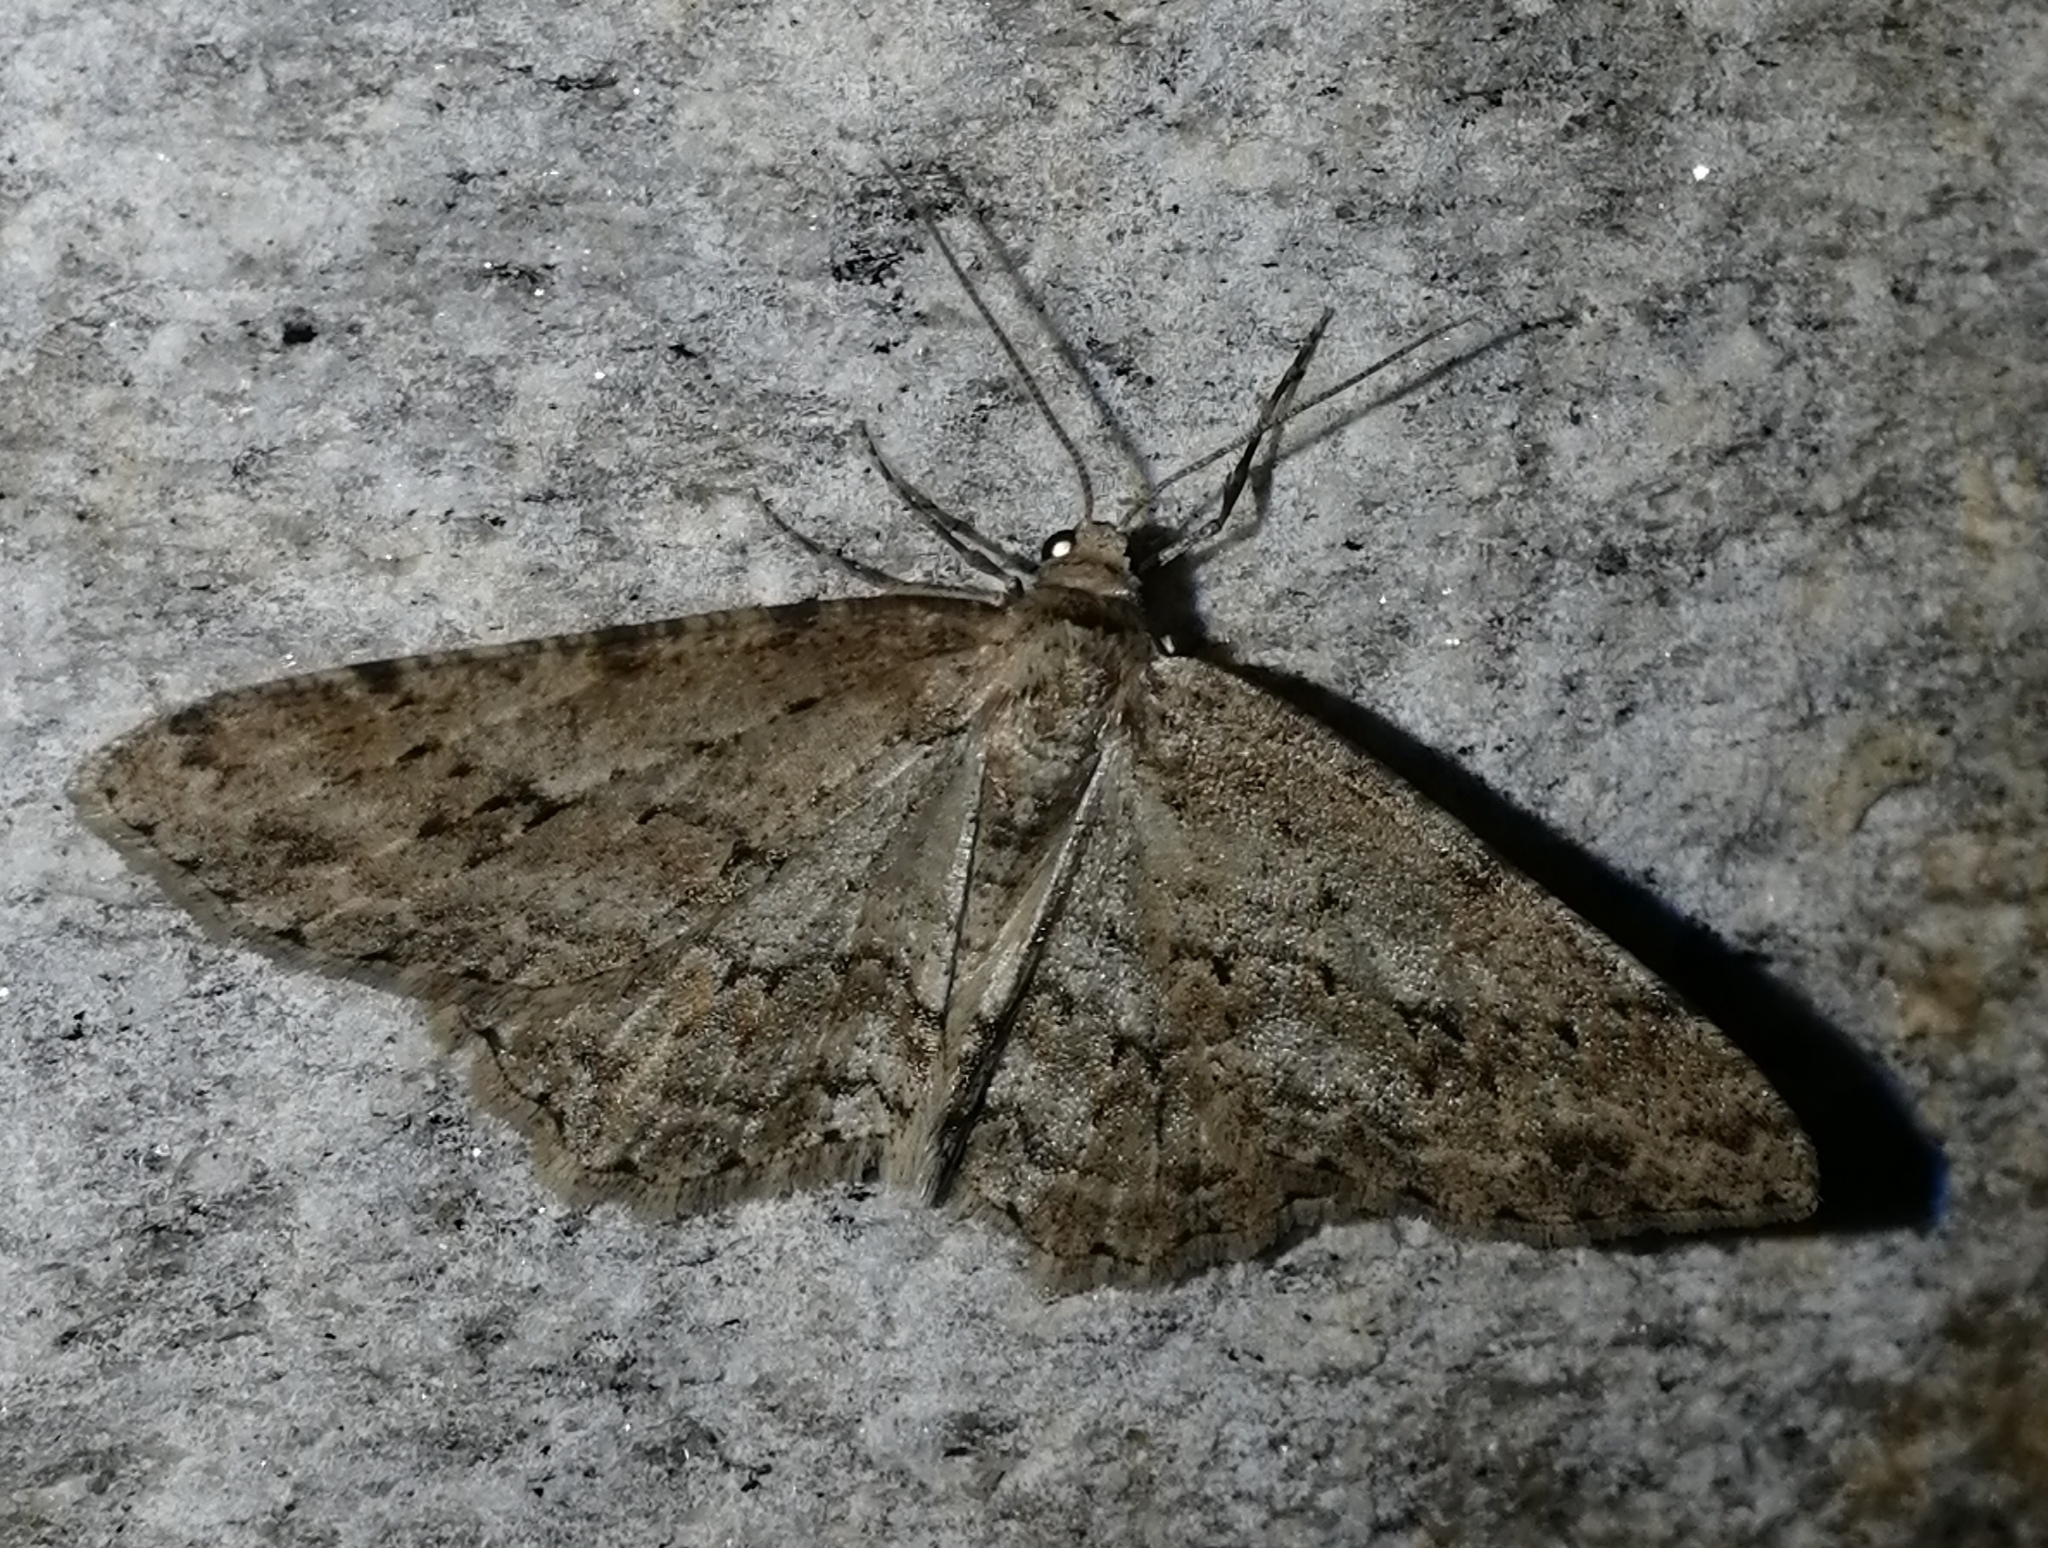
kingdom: Animalia
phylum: Arthropoda
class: Insecta
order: Lepidoptera
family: Geometridae
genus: Ectropis
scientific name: Ectropis crepuscularia
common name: Engrailed
